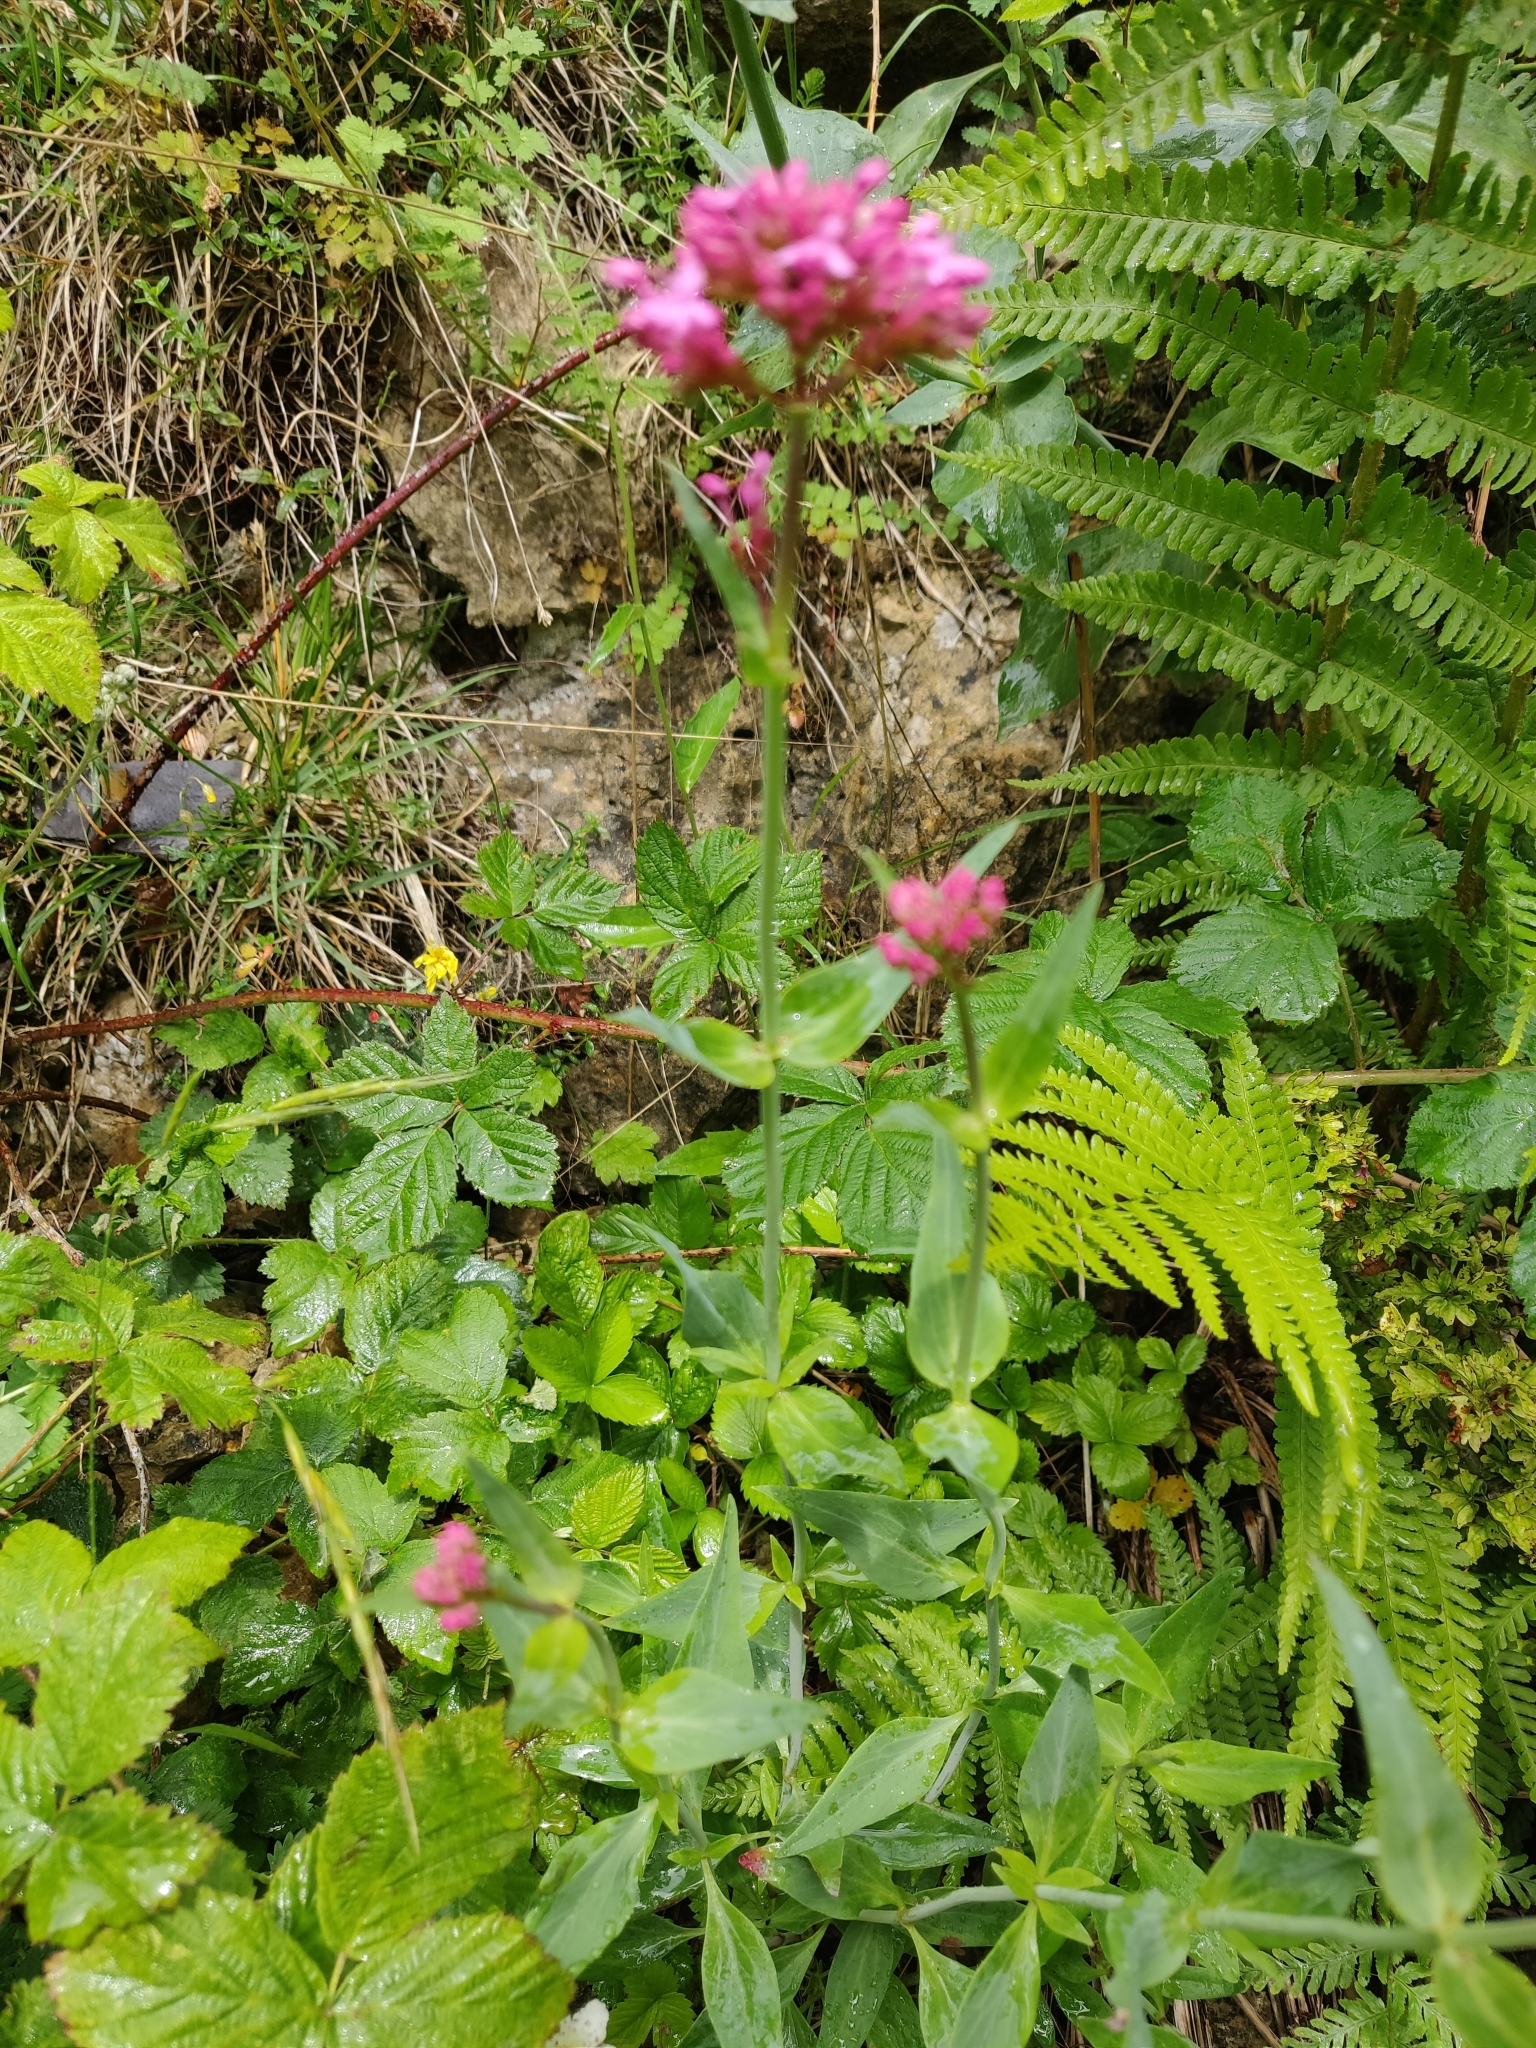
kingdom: Plantae
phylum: Tracheophyta
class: Magnoliopsida
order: Dipsacales
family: Caprifoliaceae
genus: Centranthus
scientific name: Centranthus ruber
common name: Red valerian
